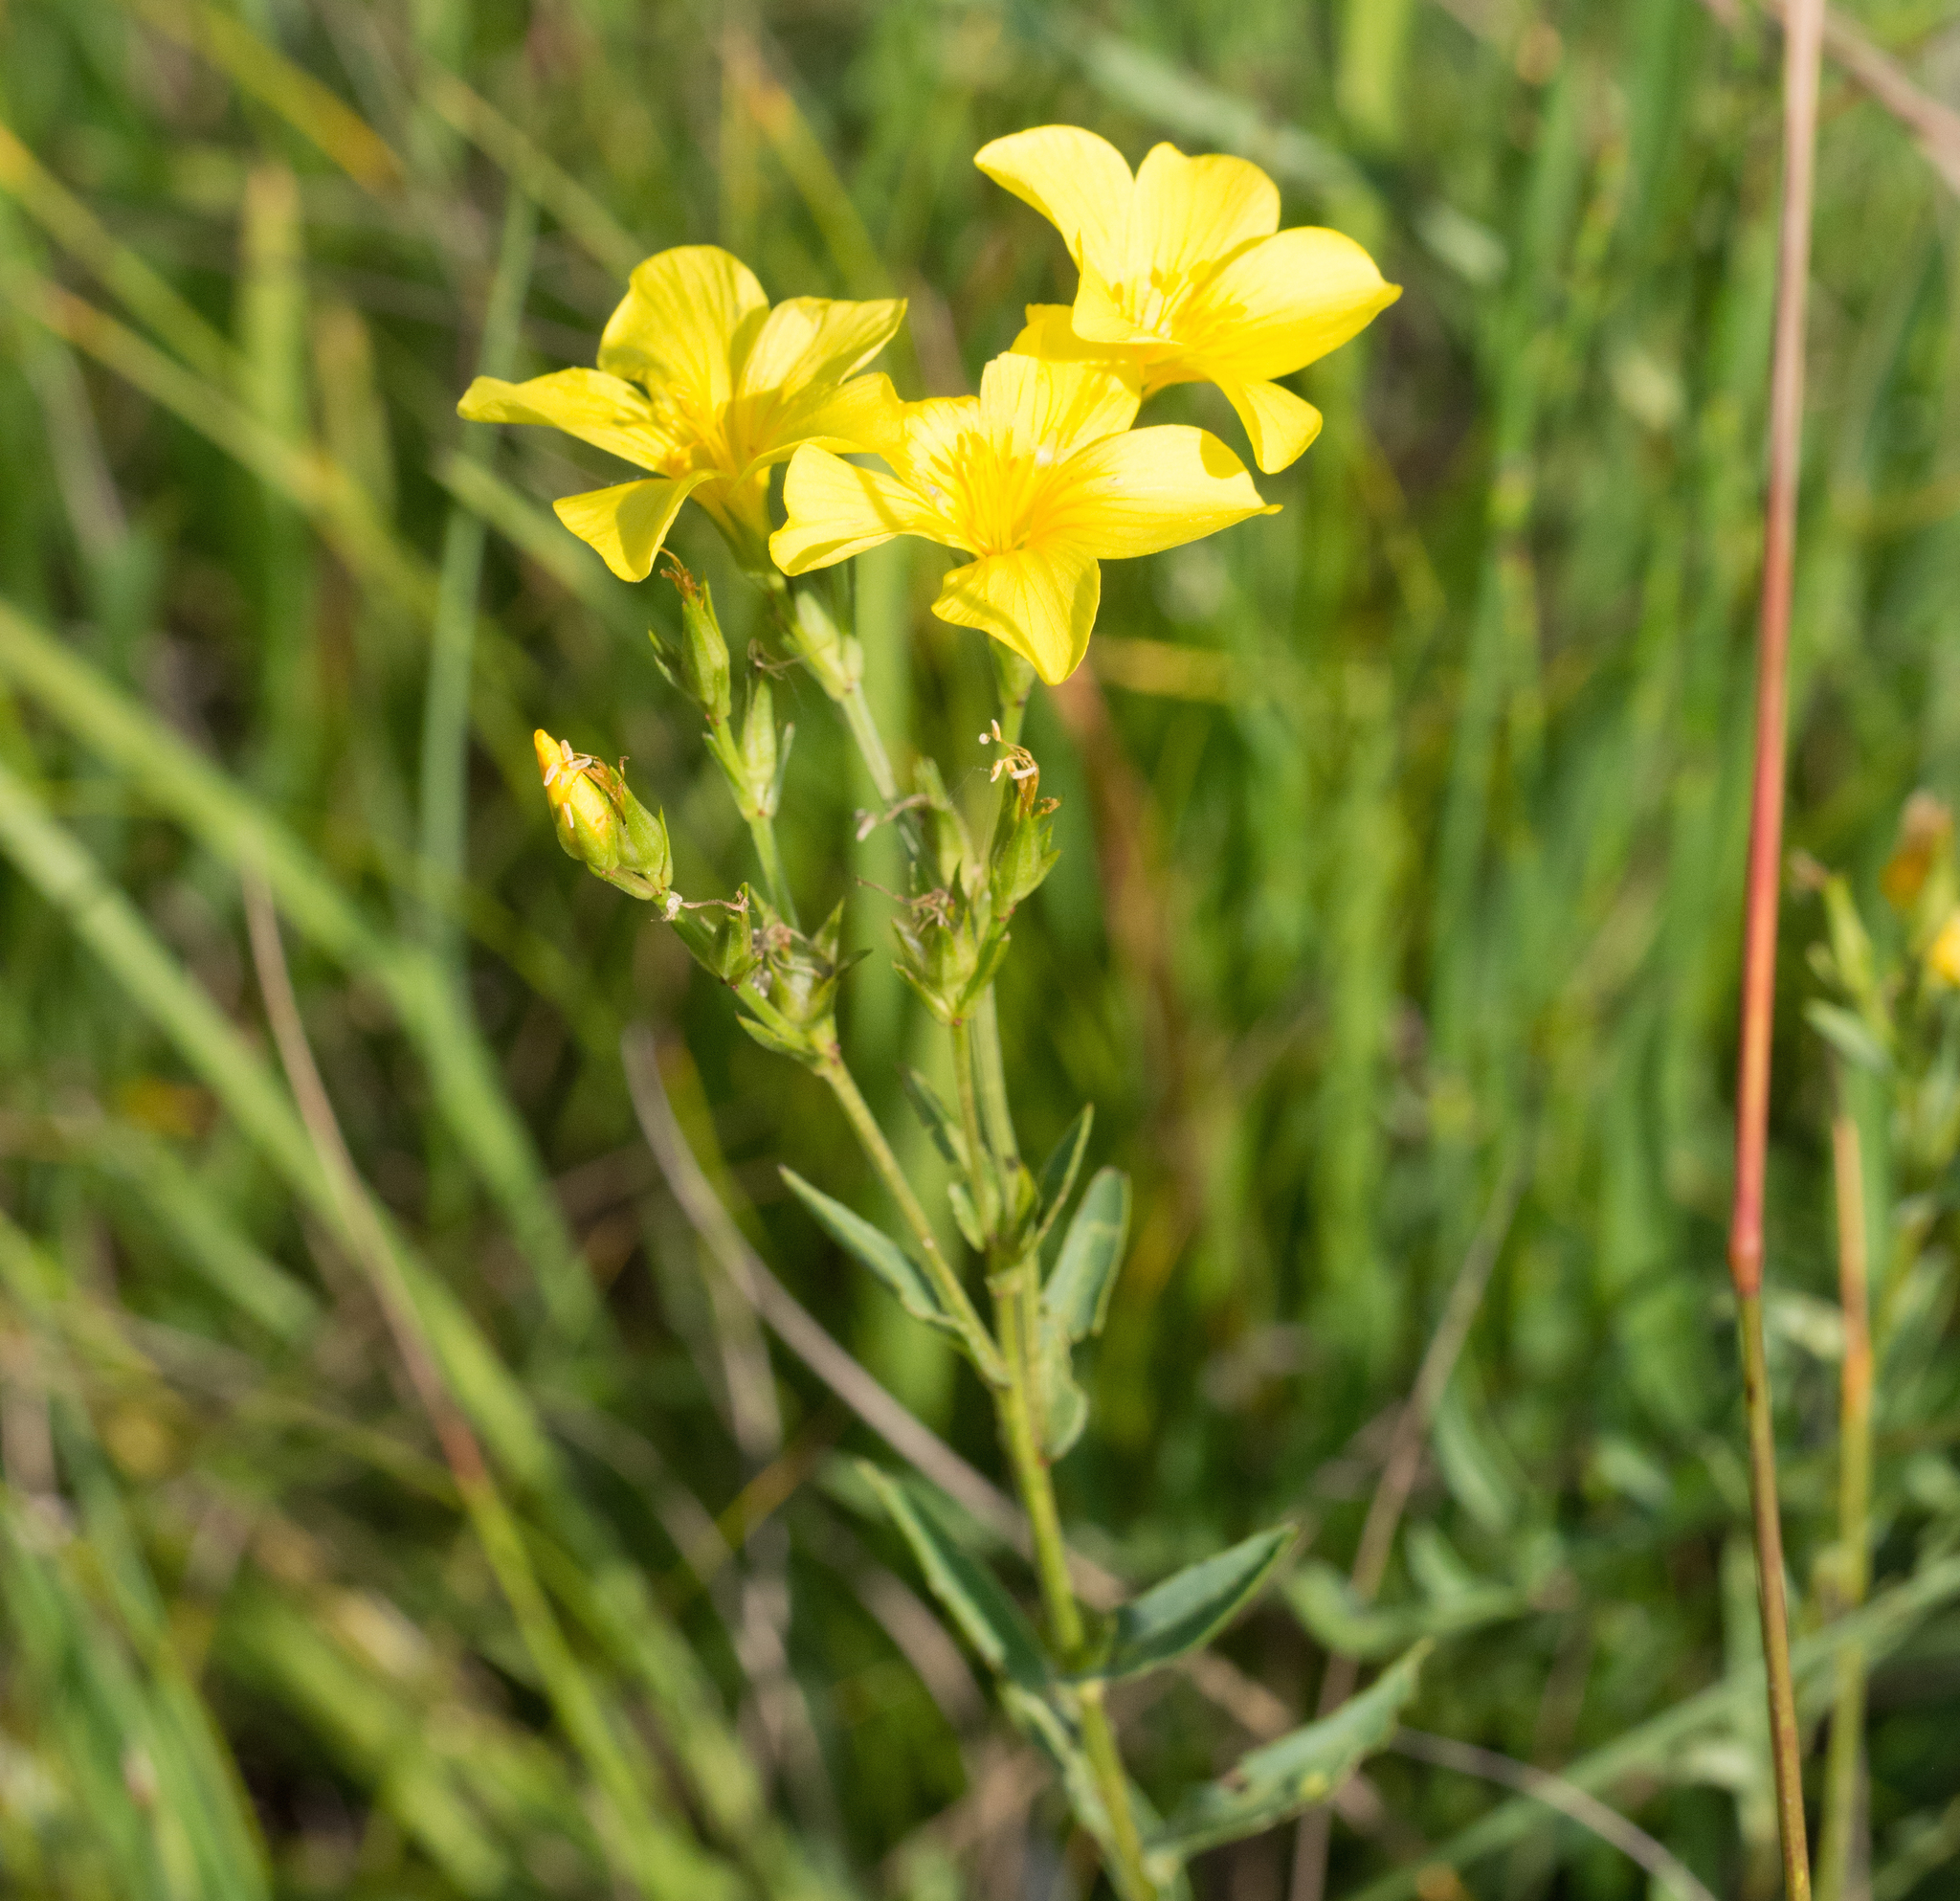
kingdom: Plantae
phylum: Tracheophyta
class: Magnoliopsida
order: Malpighiales
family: Linaceae
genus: Linum
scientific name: Linum flavum
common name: Yellow flax
